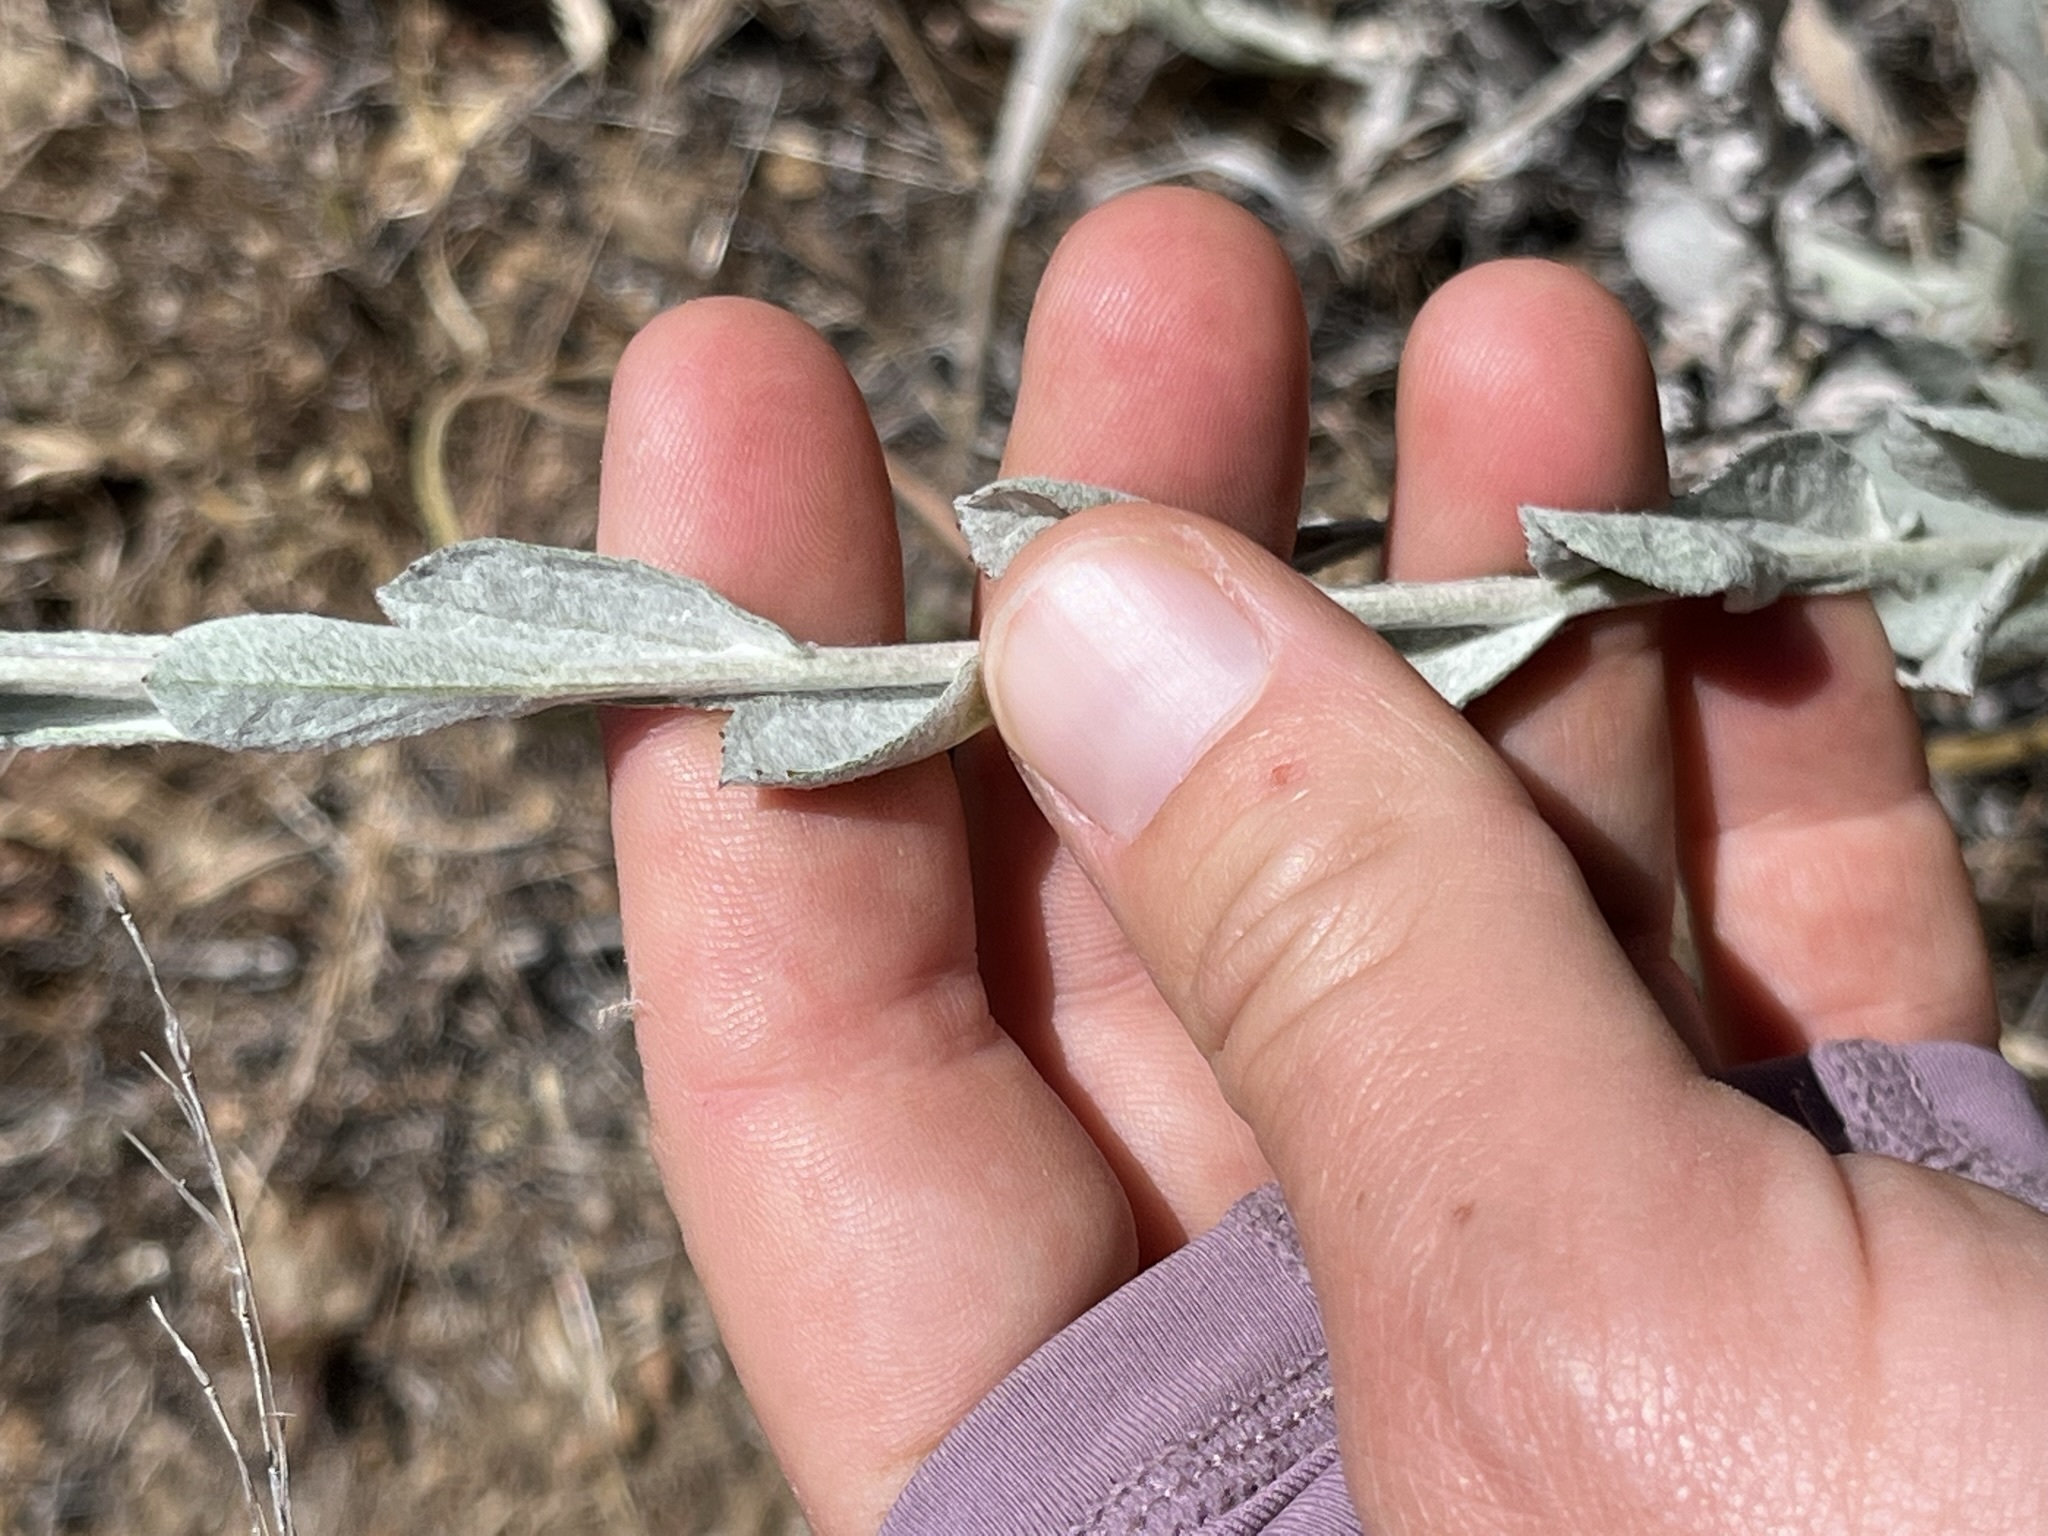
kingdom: Plantae
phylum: Tracheophyta
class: Magnoliopsida
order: Asterales
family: Asteraceae
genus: Corethrogyne
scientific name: Corethrogyne filaginifolia
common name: Sand-aster
